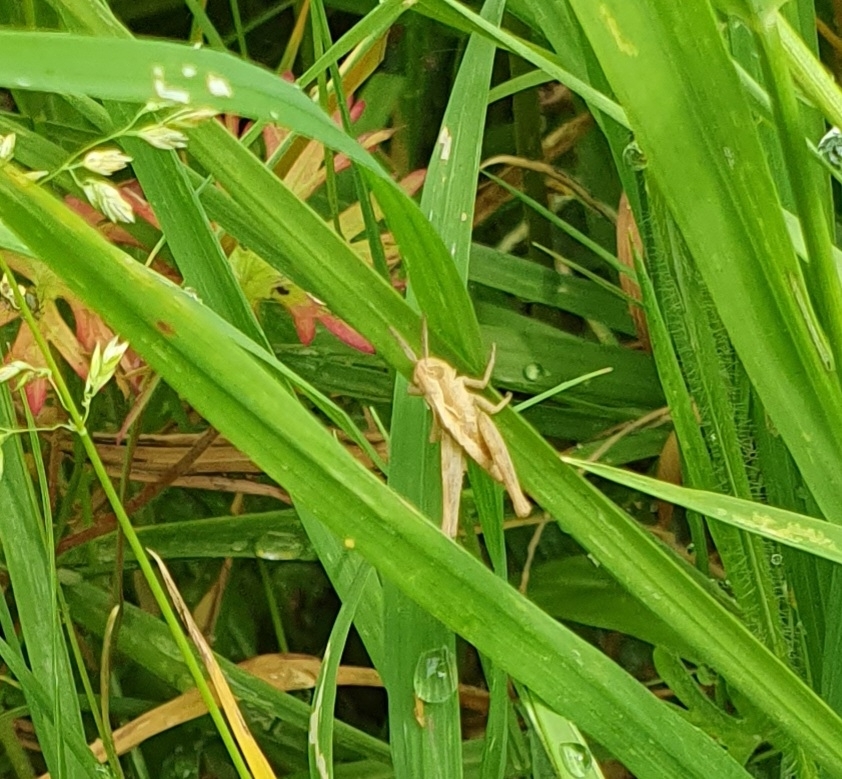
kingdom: Animalia
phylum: Arthropoda
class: Insecta
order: Orthoptera
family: Acrididae
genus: Chorthippus
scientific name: Chorthippus brunneus
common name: Field grasshopper
